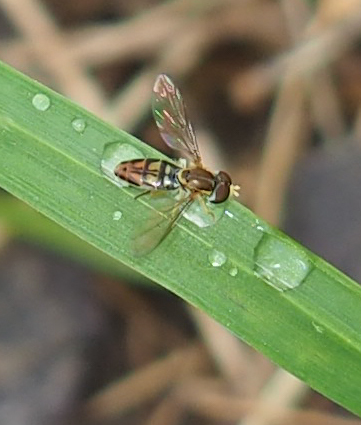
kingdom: Animalia
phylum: Arthropoda
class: Insecta
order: Diptera
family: Syrphidae
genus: Toxomerus
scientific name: Toxomerus marginatus
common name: Syrphid fly
